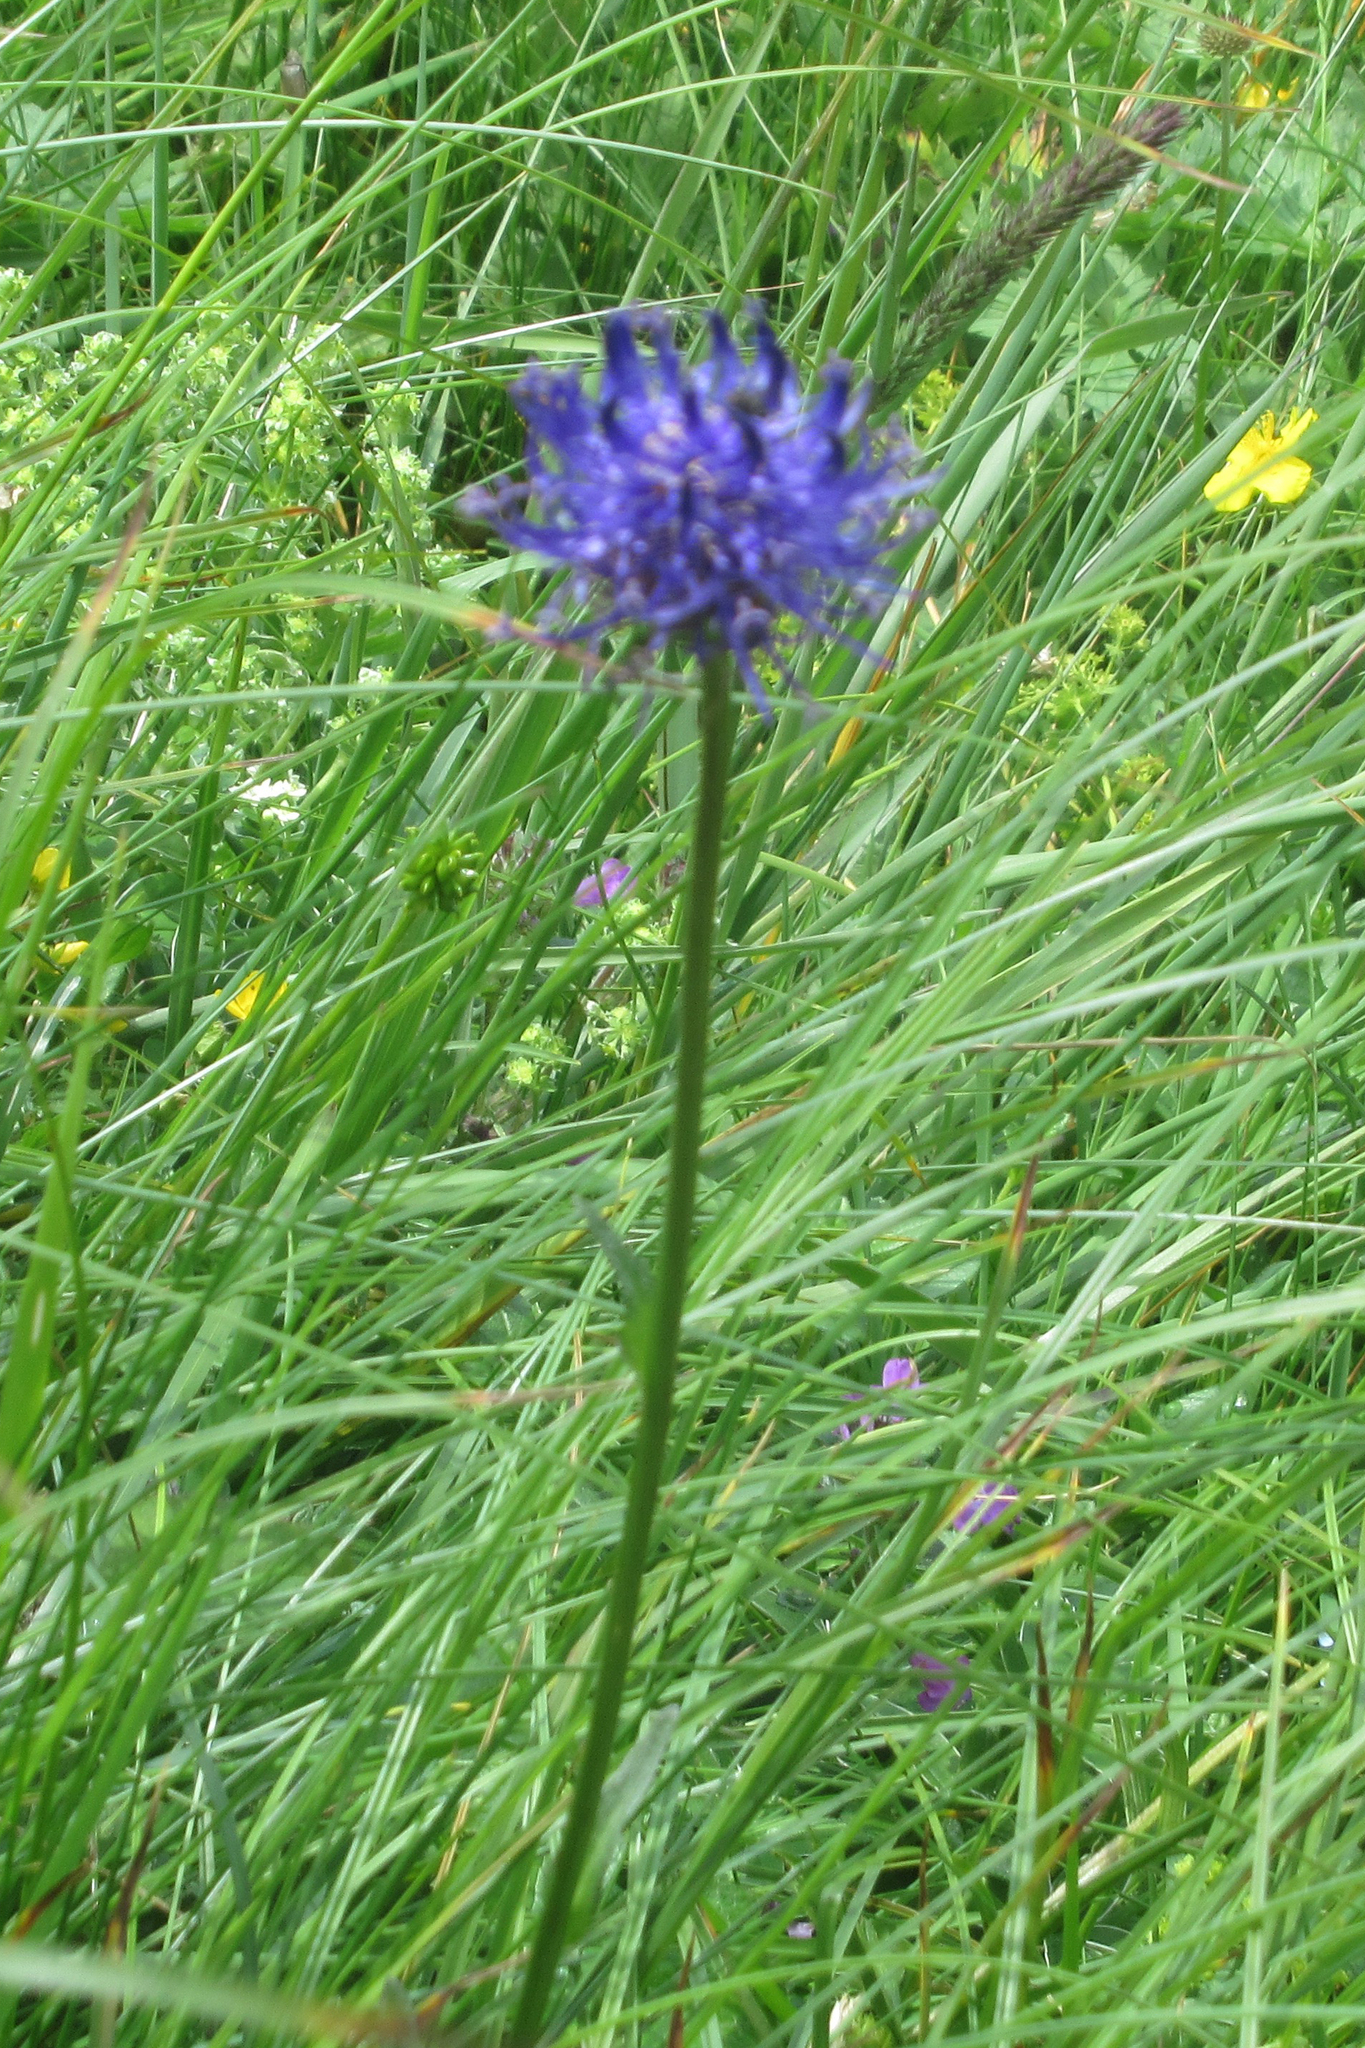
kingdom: Plantae
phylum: Tracheophyta
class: Magnoliopsida
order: Asterales
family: Campanulaceae
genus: Phyteuma
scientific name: Phyteuma orbiculare
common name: Round-headed rampion
